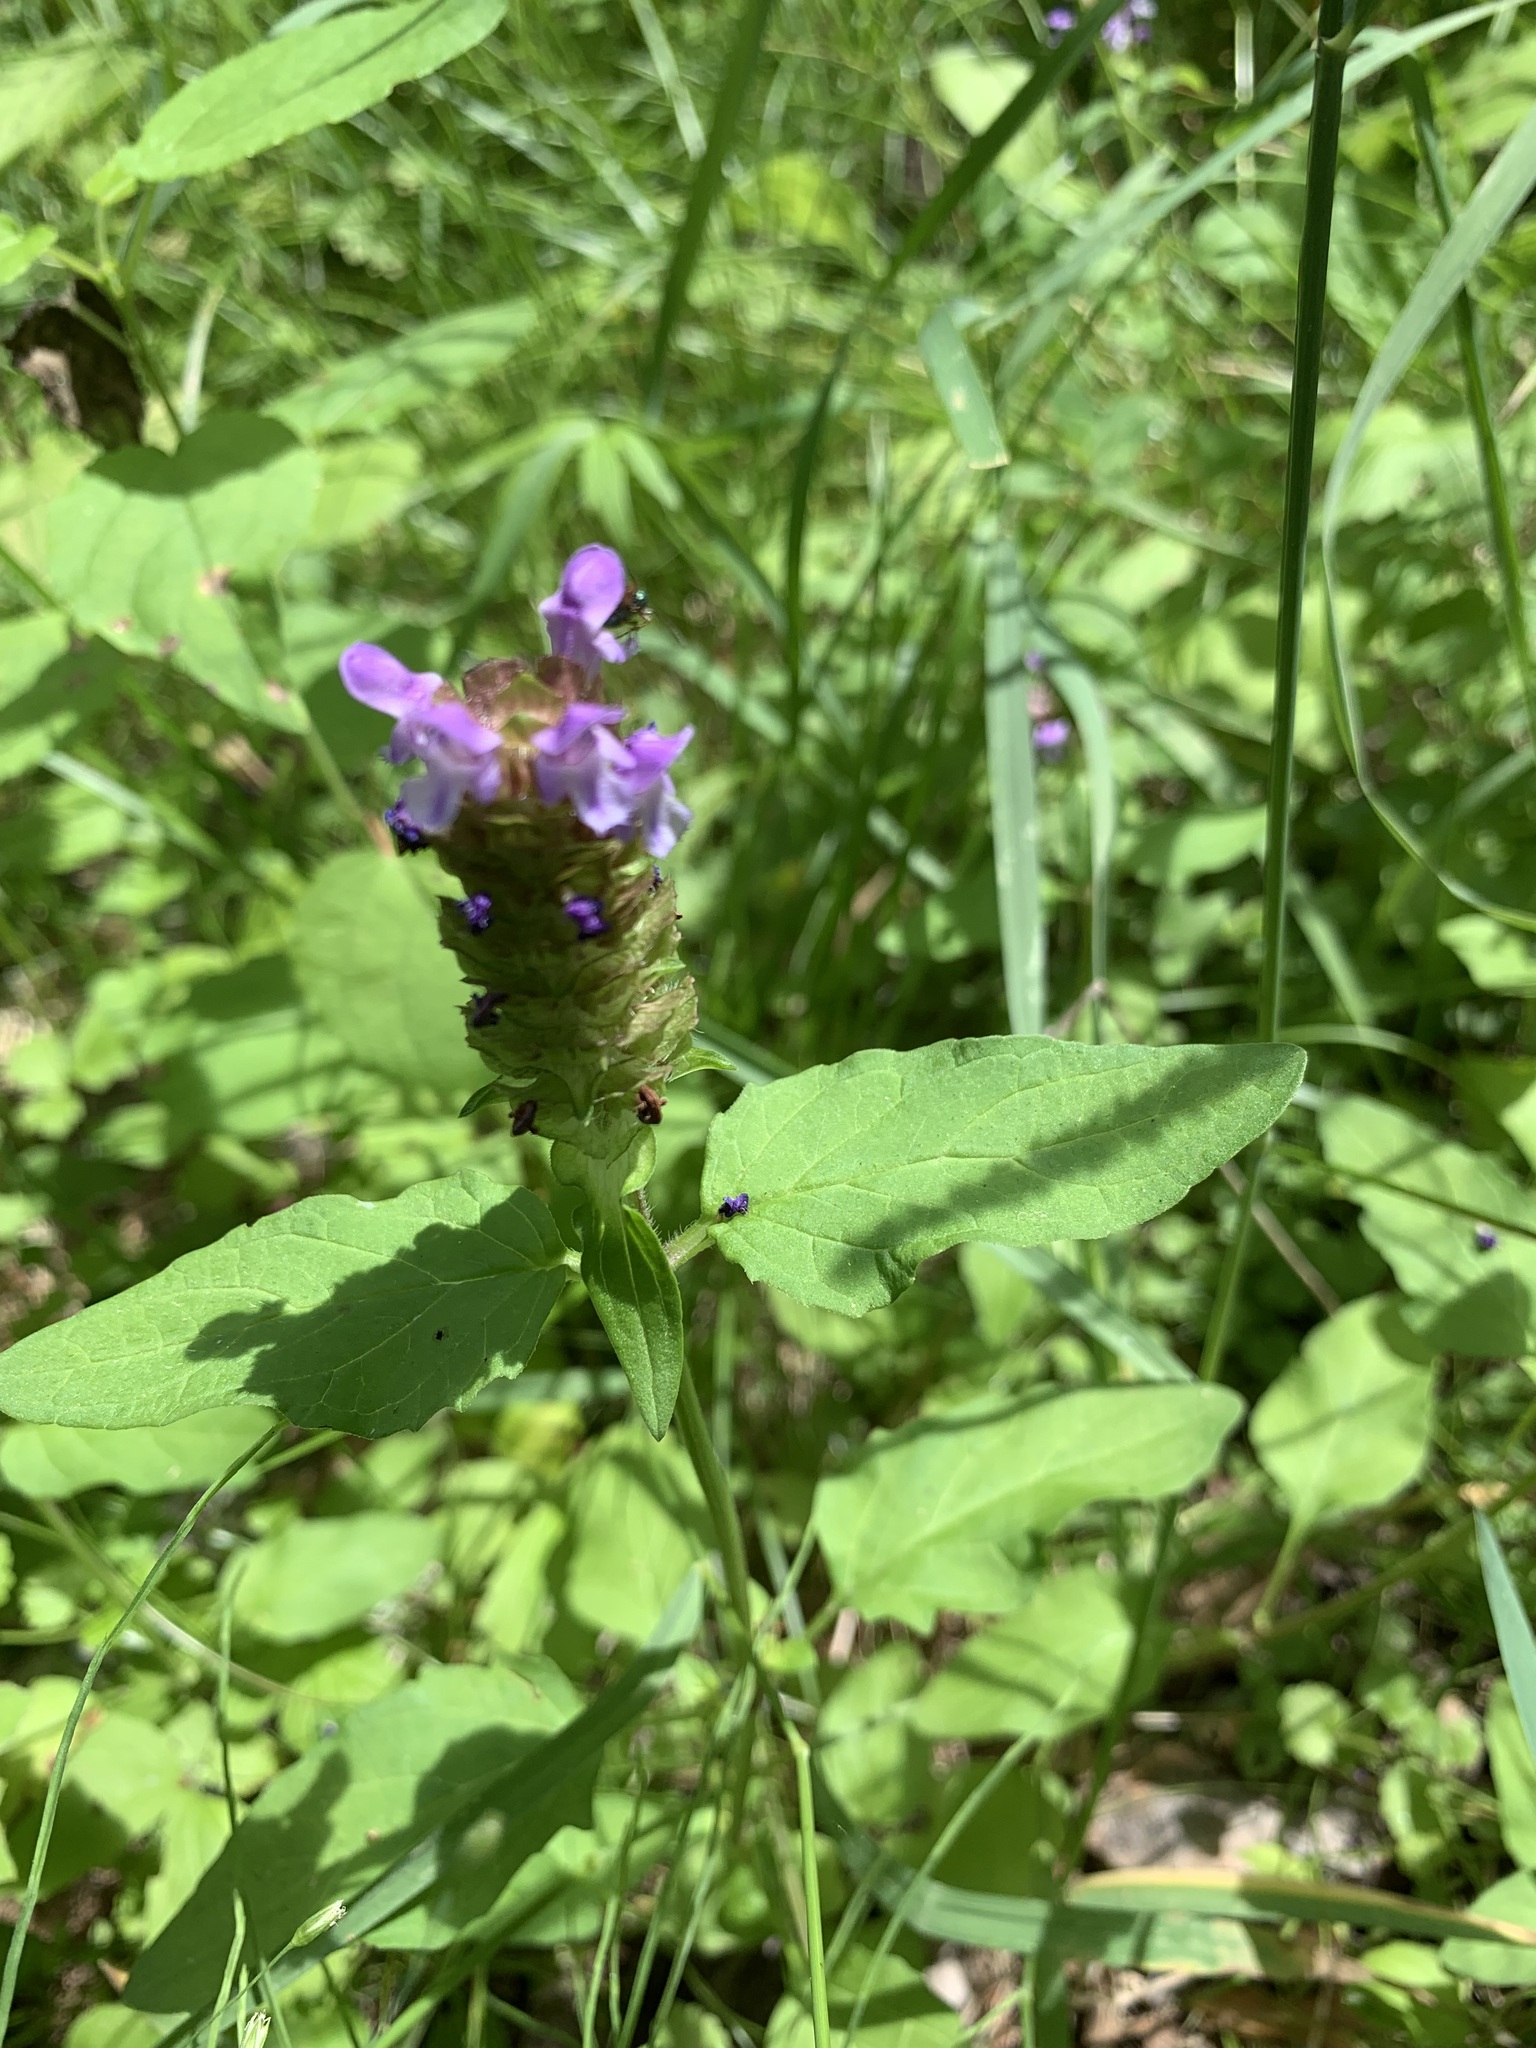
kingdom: Plantae
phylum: Tracheophyta
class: Magnoliopsida
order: Lamiales
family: Lamiaceae
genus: Prunella
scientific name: Prunella vulgaris
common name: Heal-all
